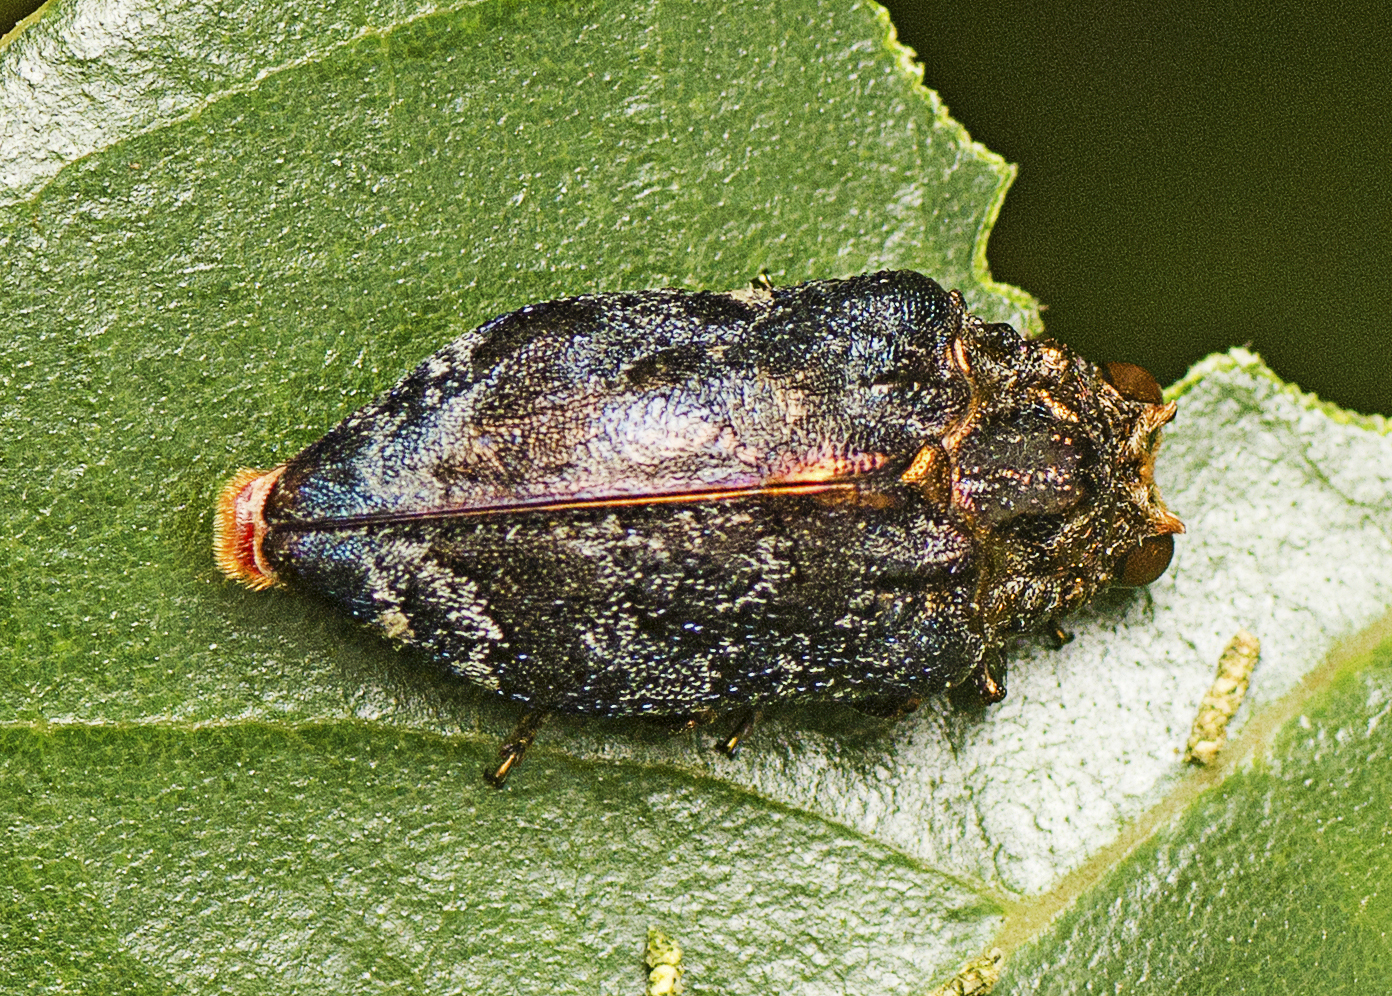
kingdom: Animalia
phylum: Arthropoda
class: Insecta
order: Coleoptera
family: Buprestidae
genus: Hypocisseis
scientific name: Hypocisseis latipennis
